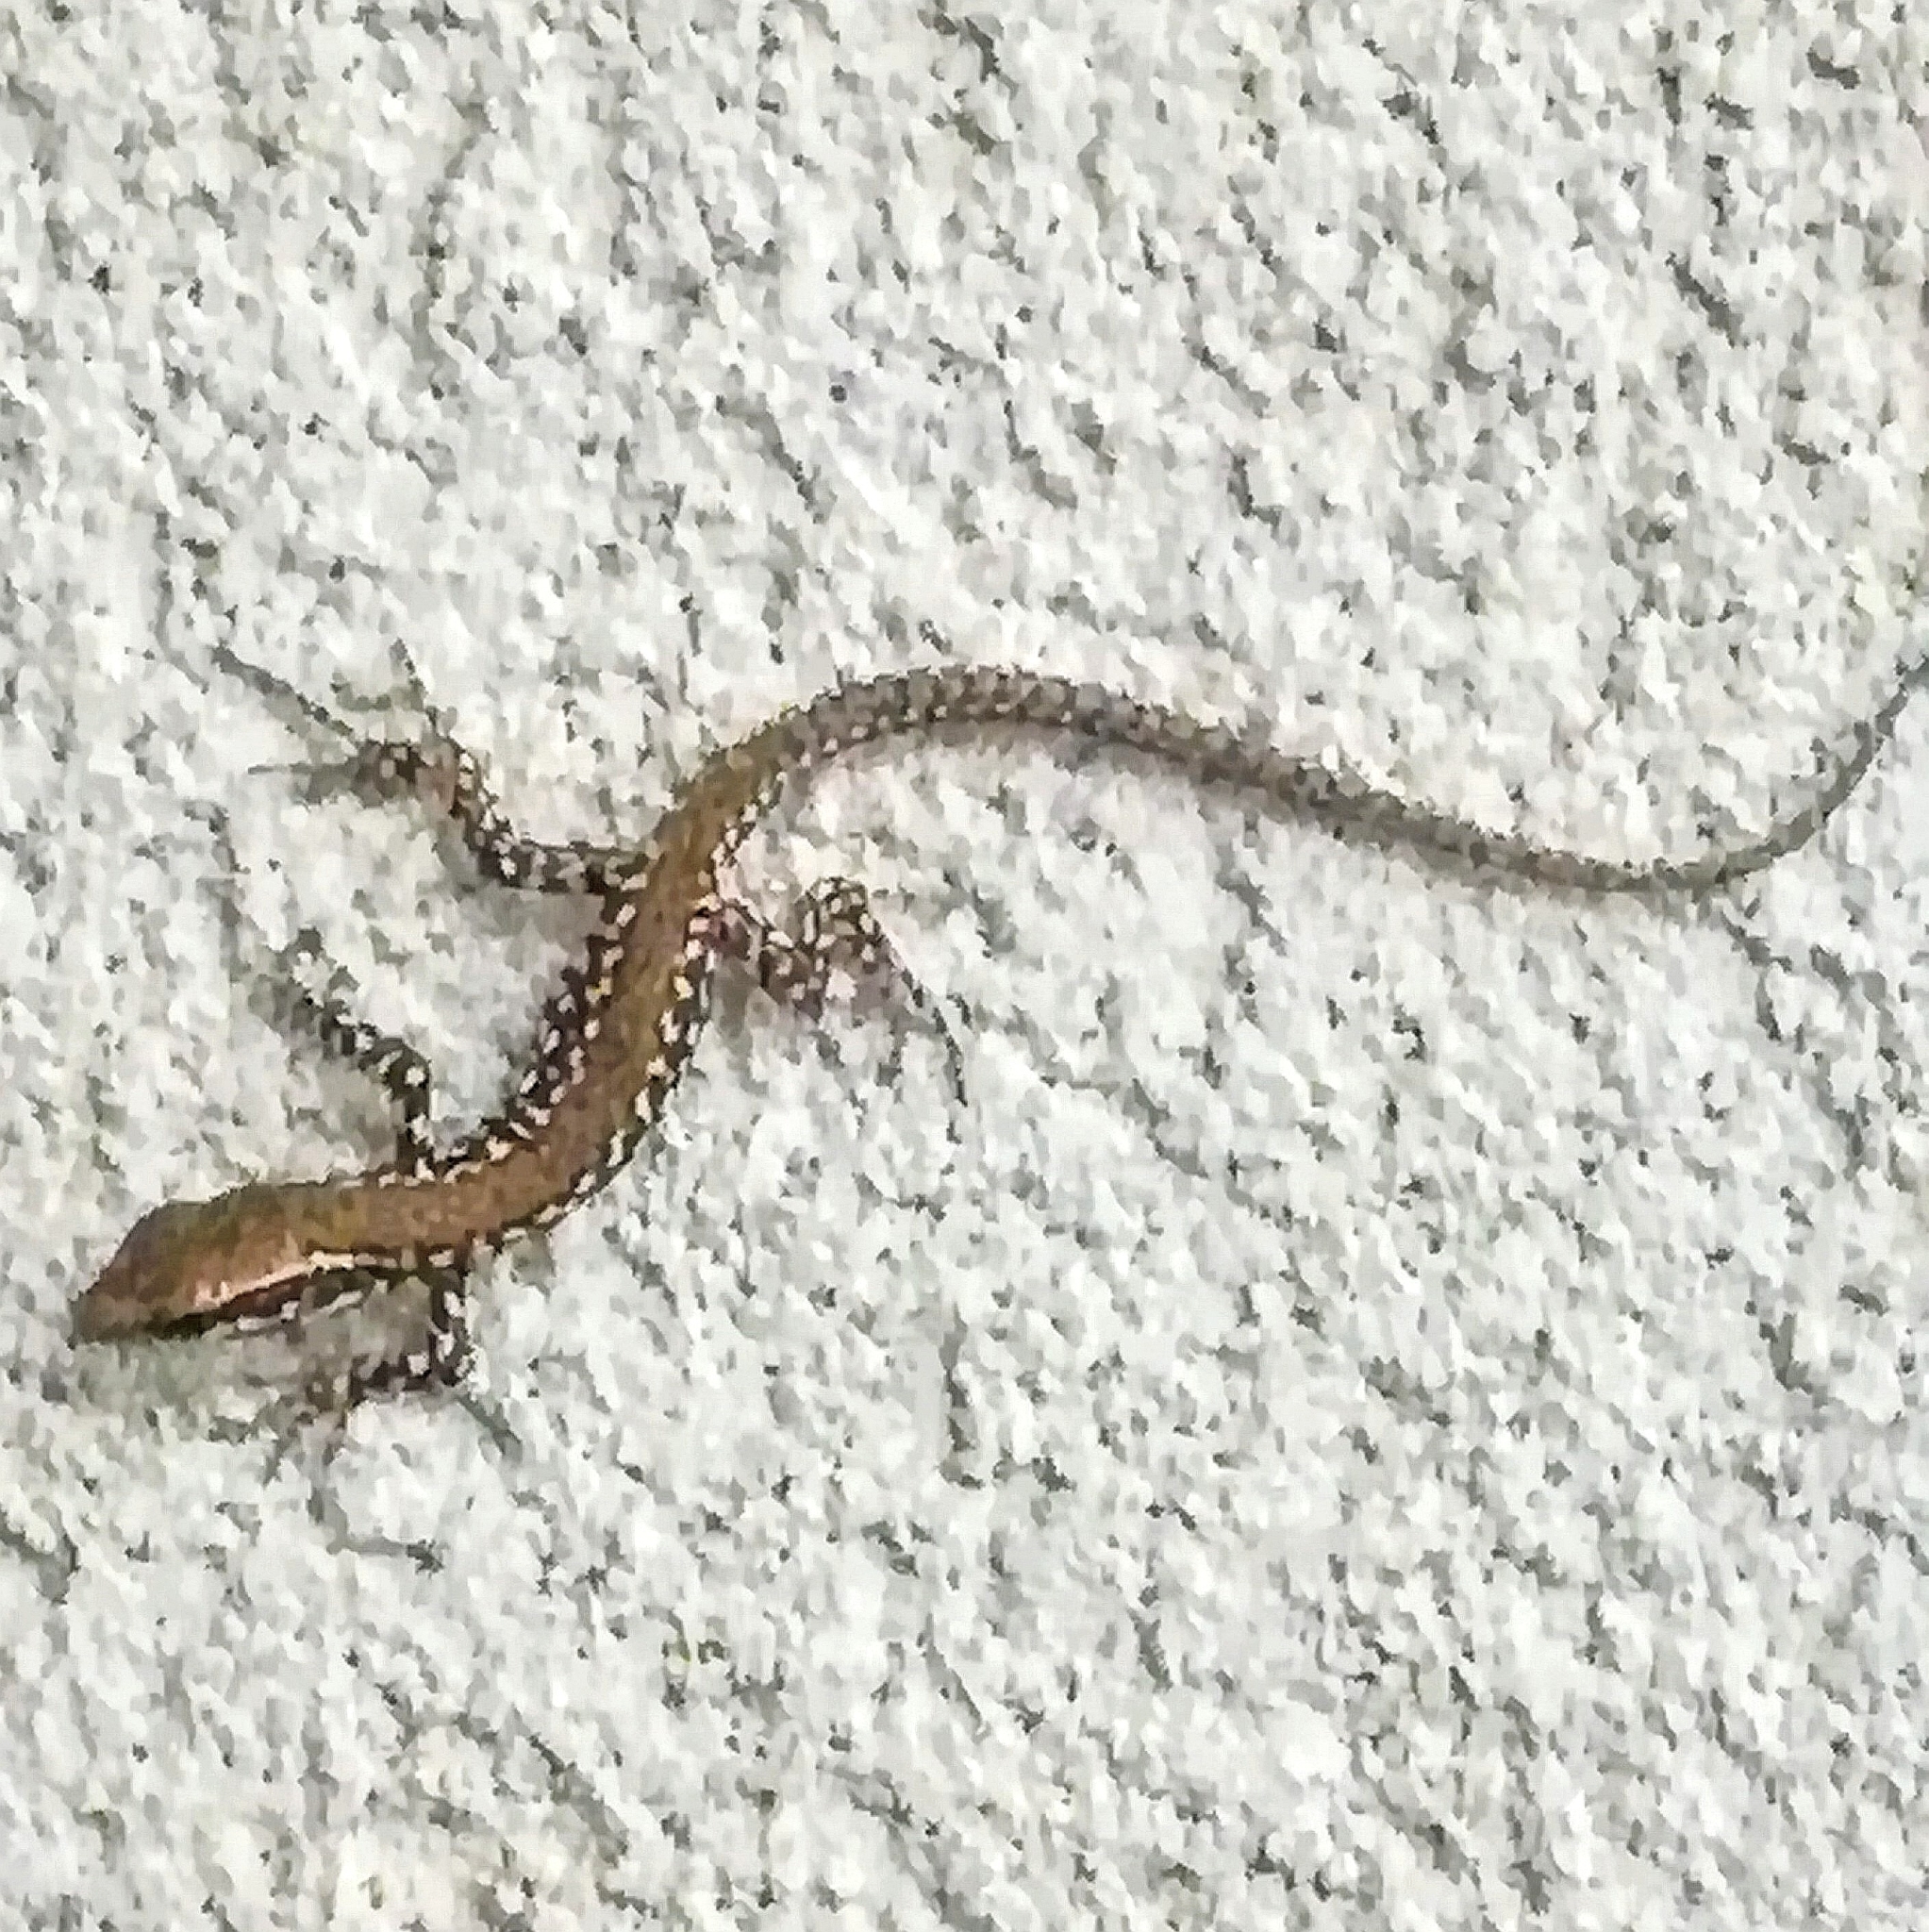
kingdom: Animalia
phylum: Chordata
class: Squamata
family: Lacertidae
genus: Podarcis
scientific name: Podarcis muralis
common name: Common wall lizard
